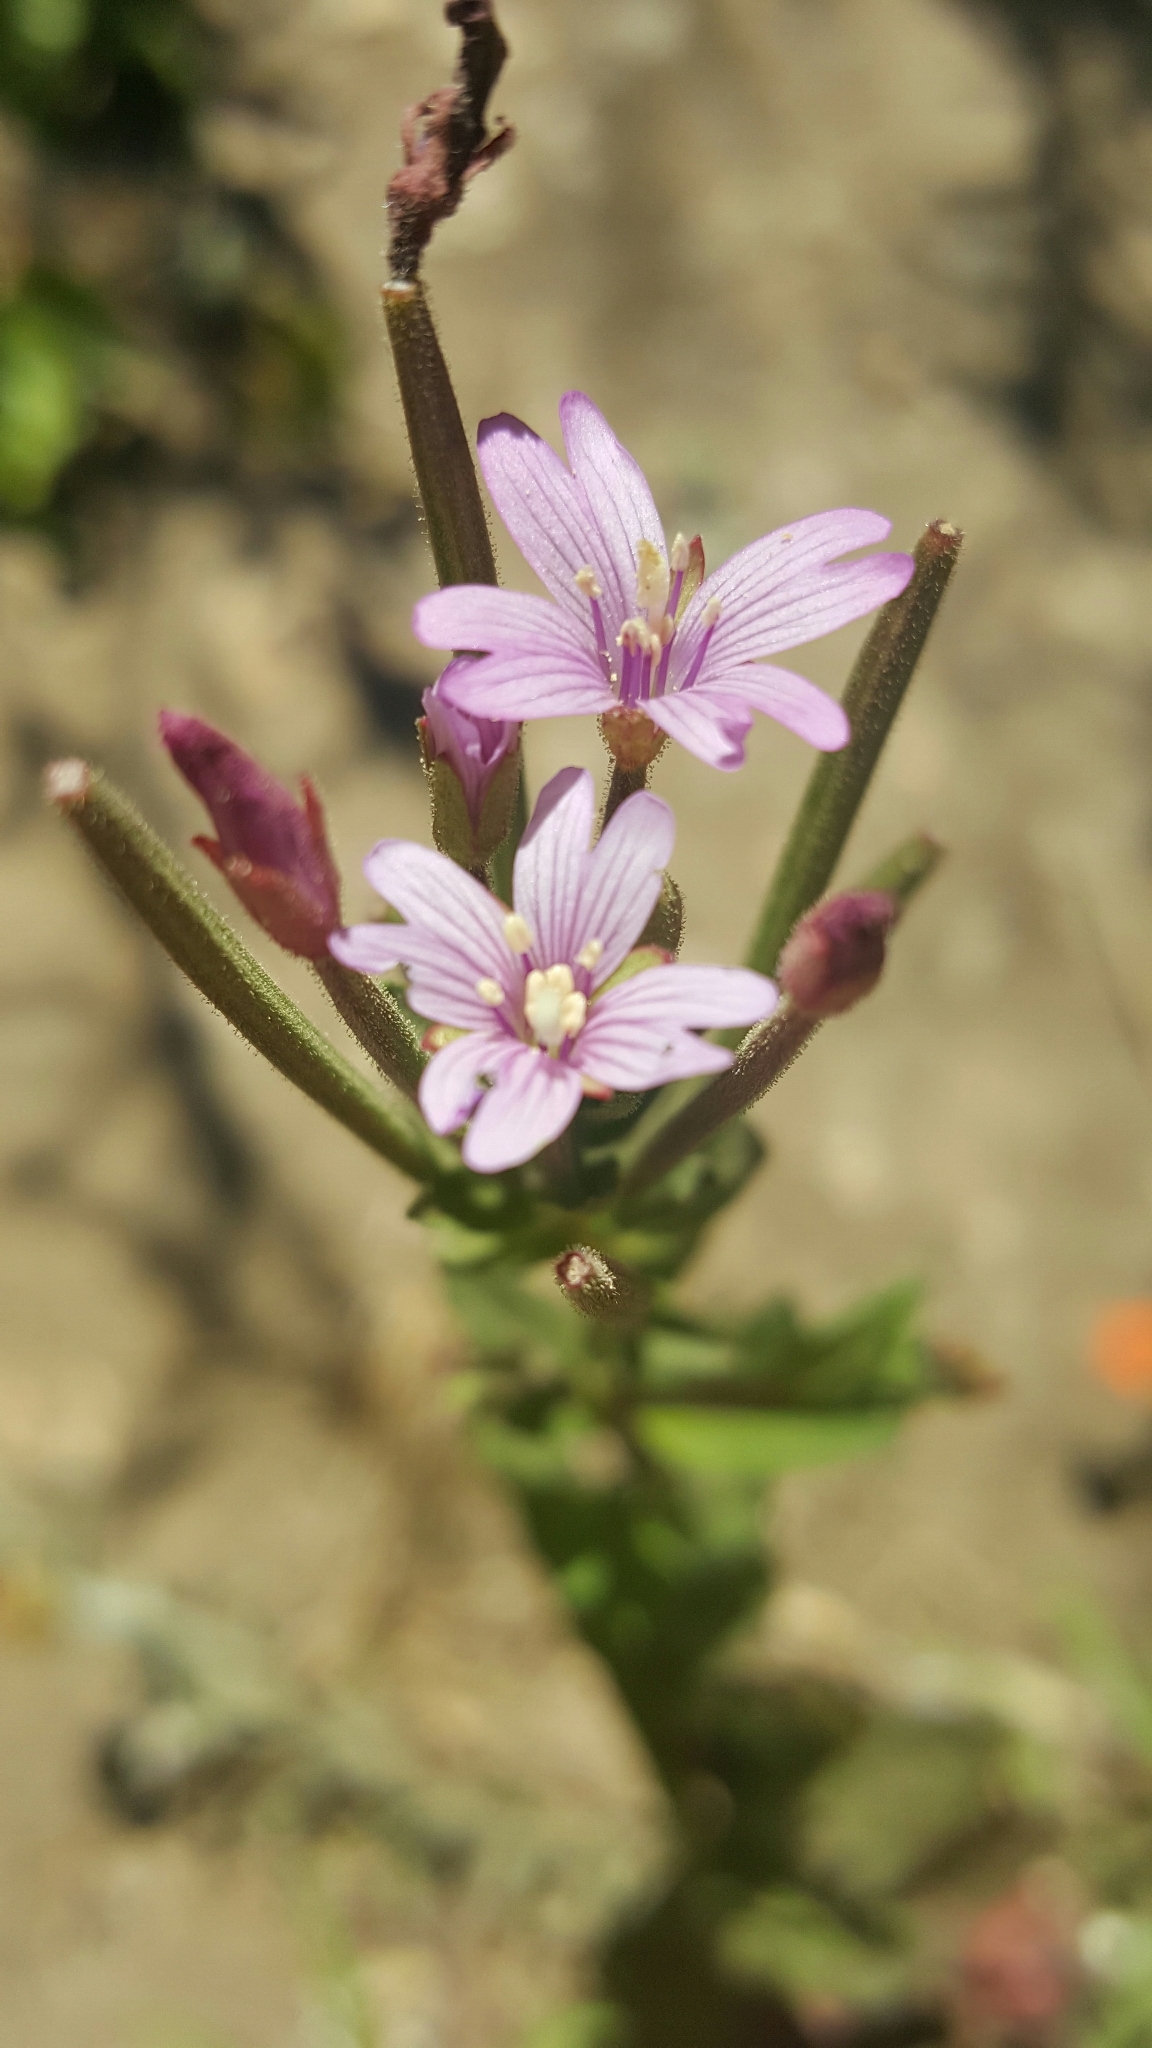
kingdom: Plantae
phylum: Tracheophyta
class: Magnoliopsida
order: Myrtales
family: Onagraceae
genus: Epilobium
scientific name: Epilobium ciliatum
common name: American willowherb
